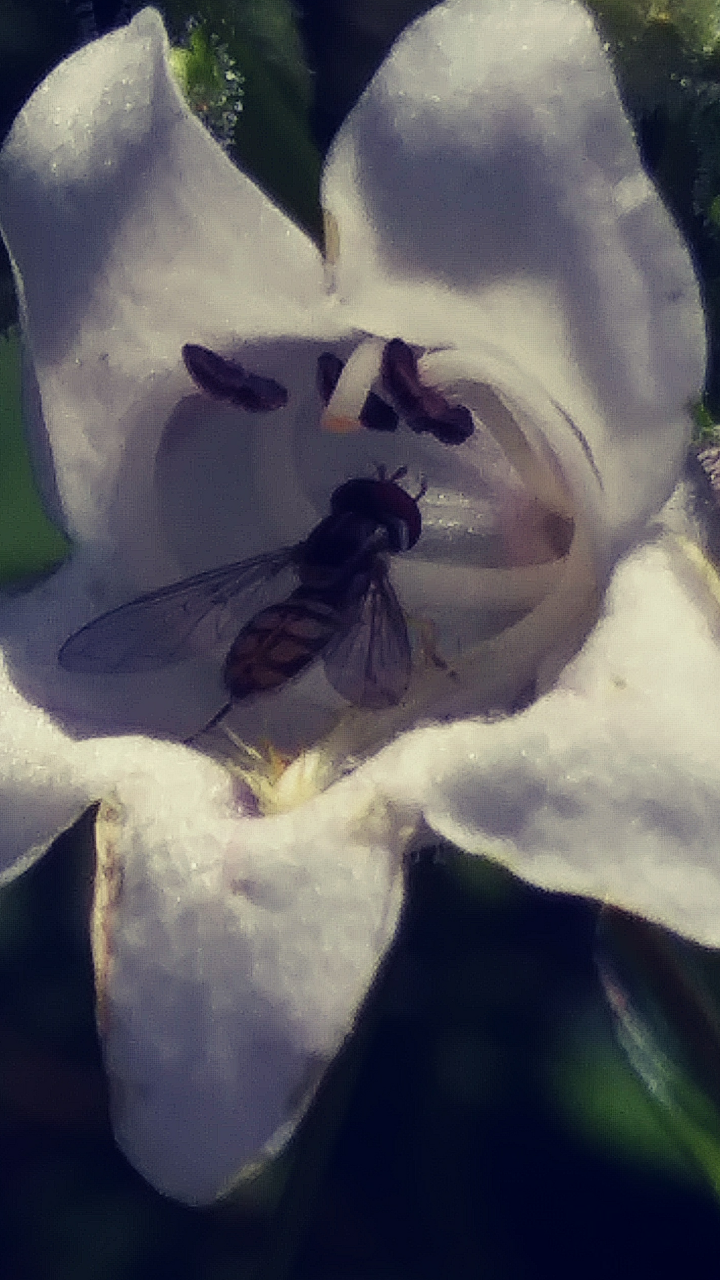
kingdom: Animalia
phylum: Arthropoda
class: Insecta
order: Diptera
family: Syrphidae
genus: Toxomerus
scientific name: Toxomerus marginatus
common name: Syrphid fly
